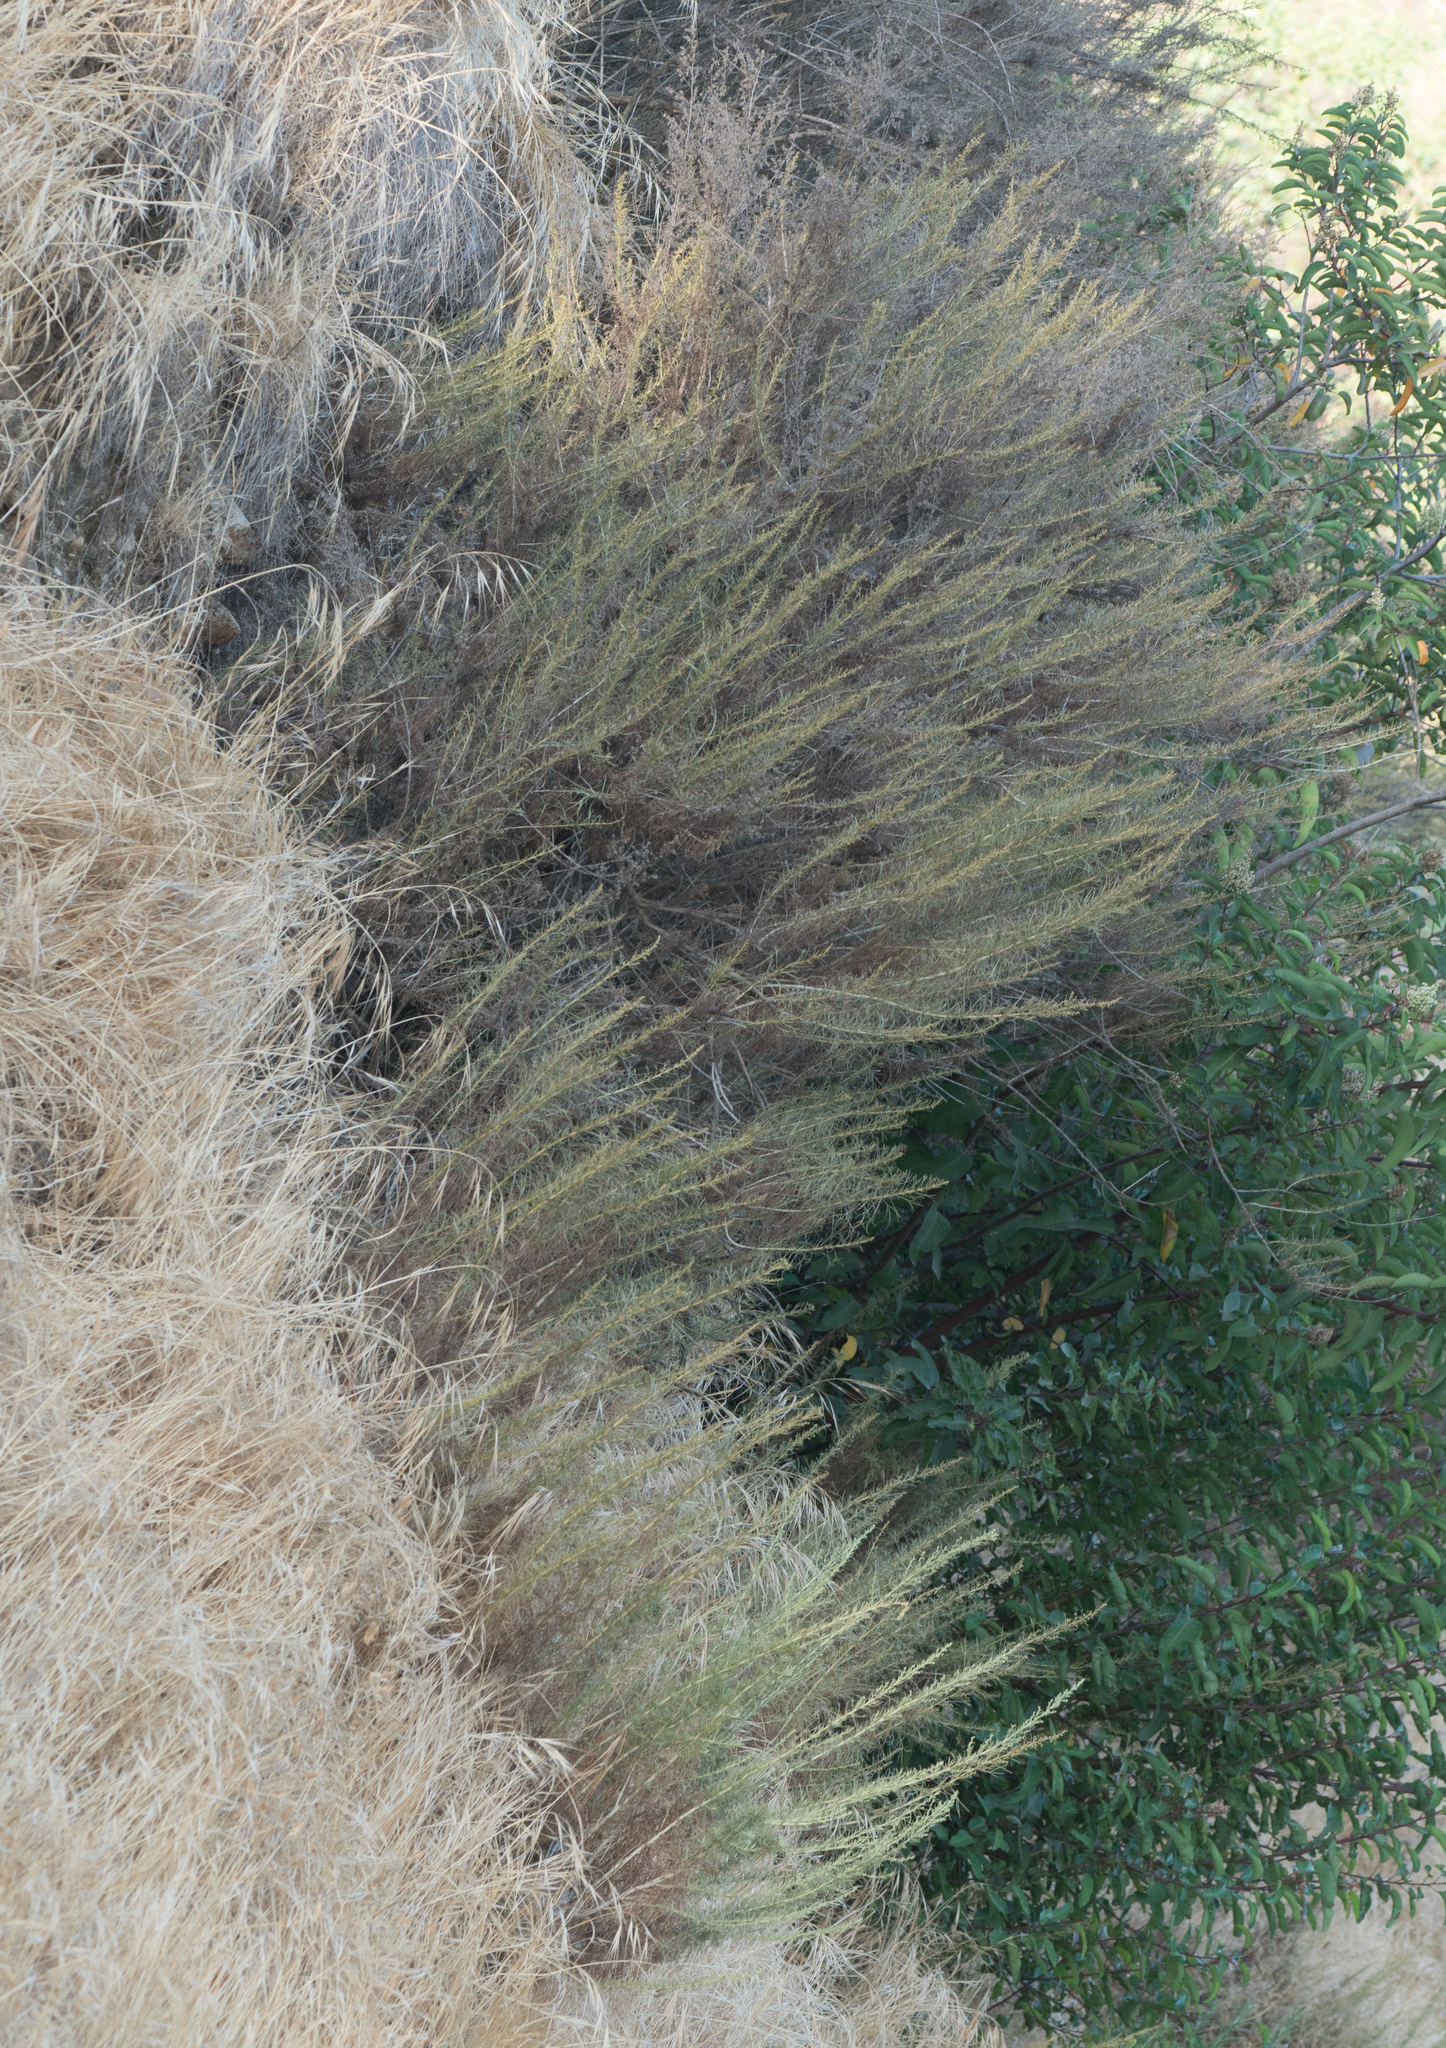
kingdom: Plantae
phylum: Tracheophyta
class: Magnoliopsida
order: Asterales
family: Asteraceae
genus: Artemisia
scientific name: Artemisia californica
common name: California sagebrush
